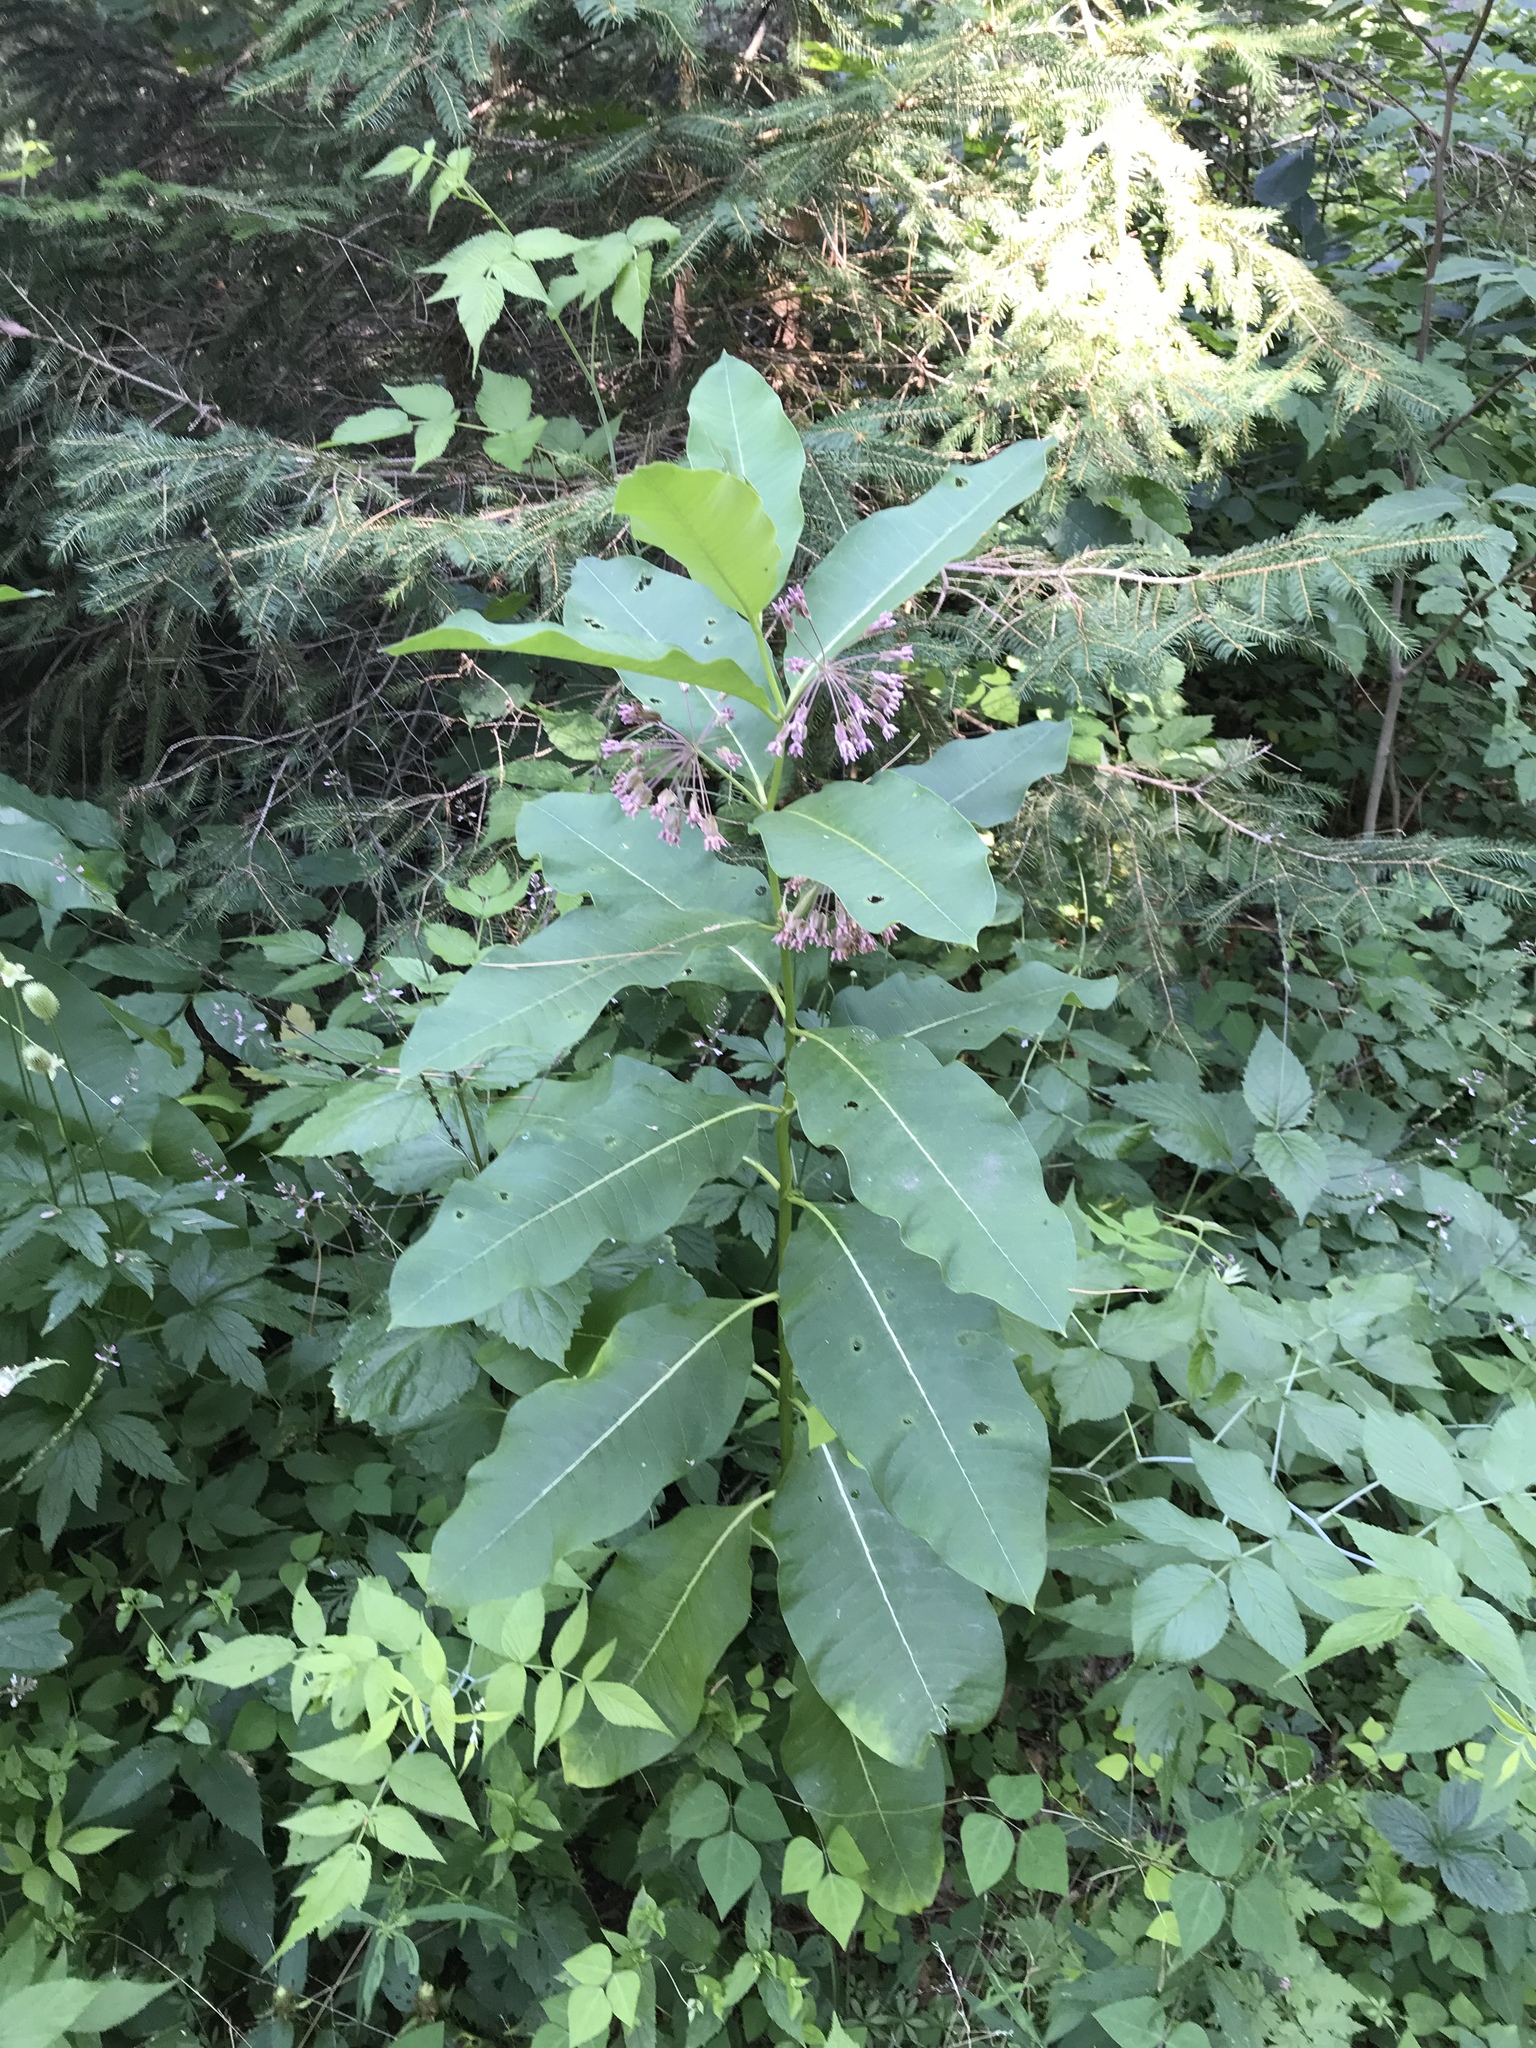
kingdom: Plantae
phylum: Tracheophyta
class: Magnoliopsida
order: Gentianales
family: Apocynaceae
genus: Asclepias
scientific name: Asclepias syriaca
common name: Common milkweed
